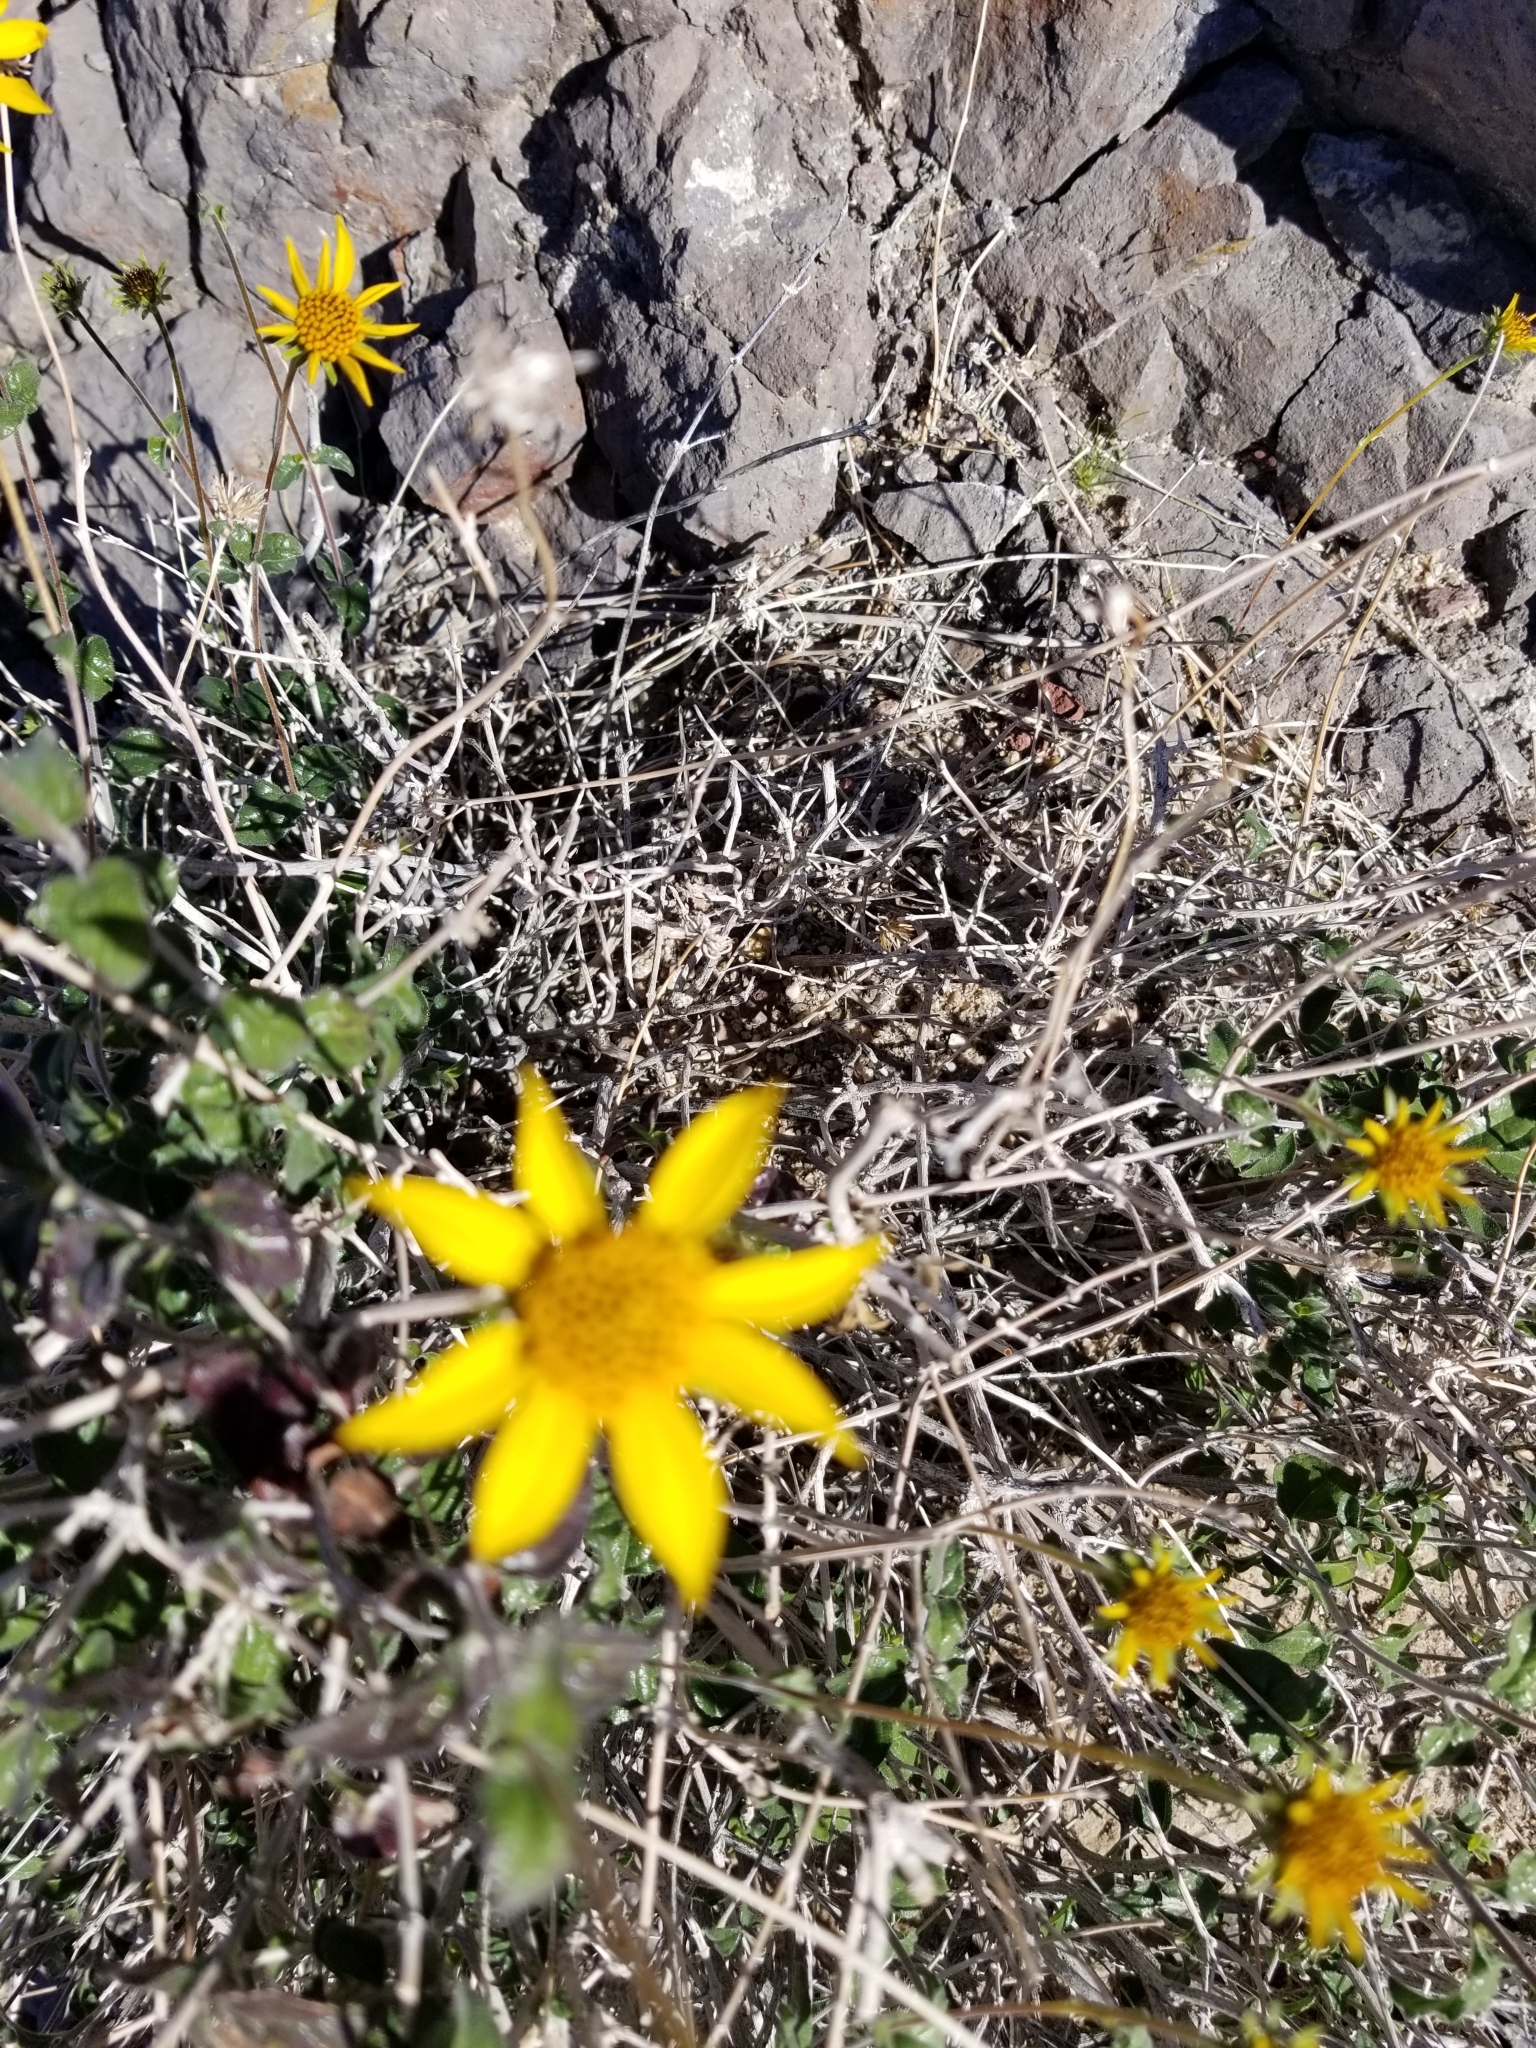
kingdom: Plantae
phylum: Tracheophyta
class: Magnoliopsida
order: Asterales
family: Asteraceae
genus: Bahiopsis
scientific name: Bahiopsis parishii
